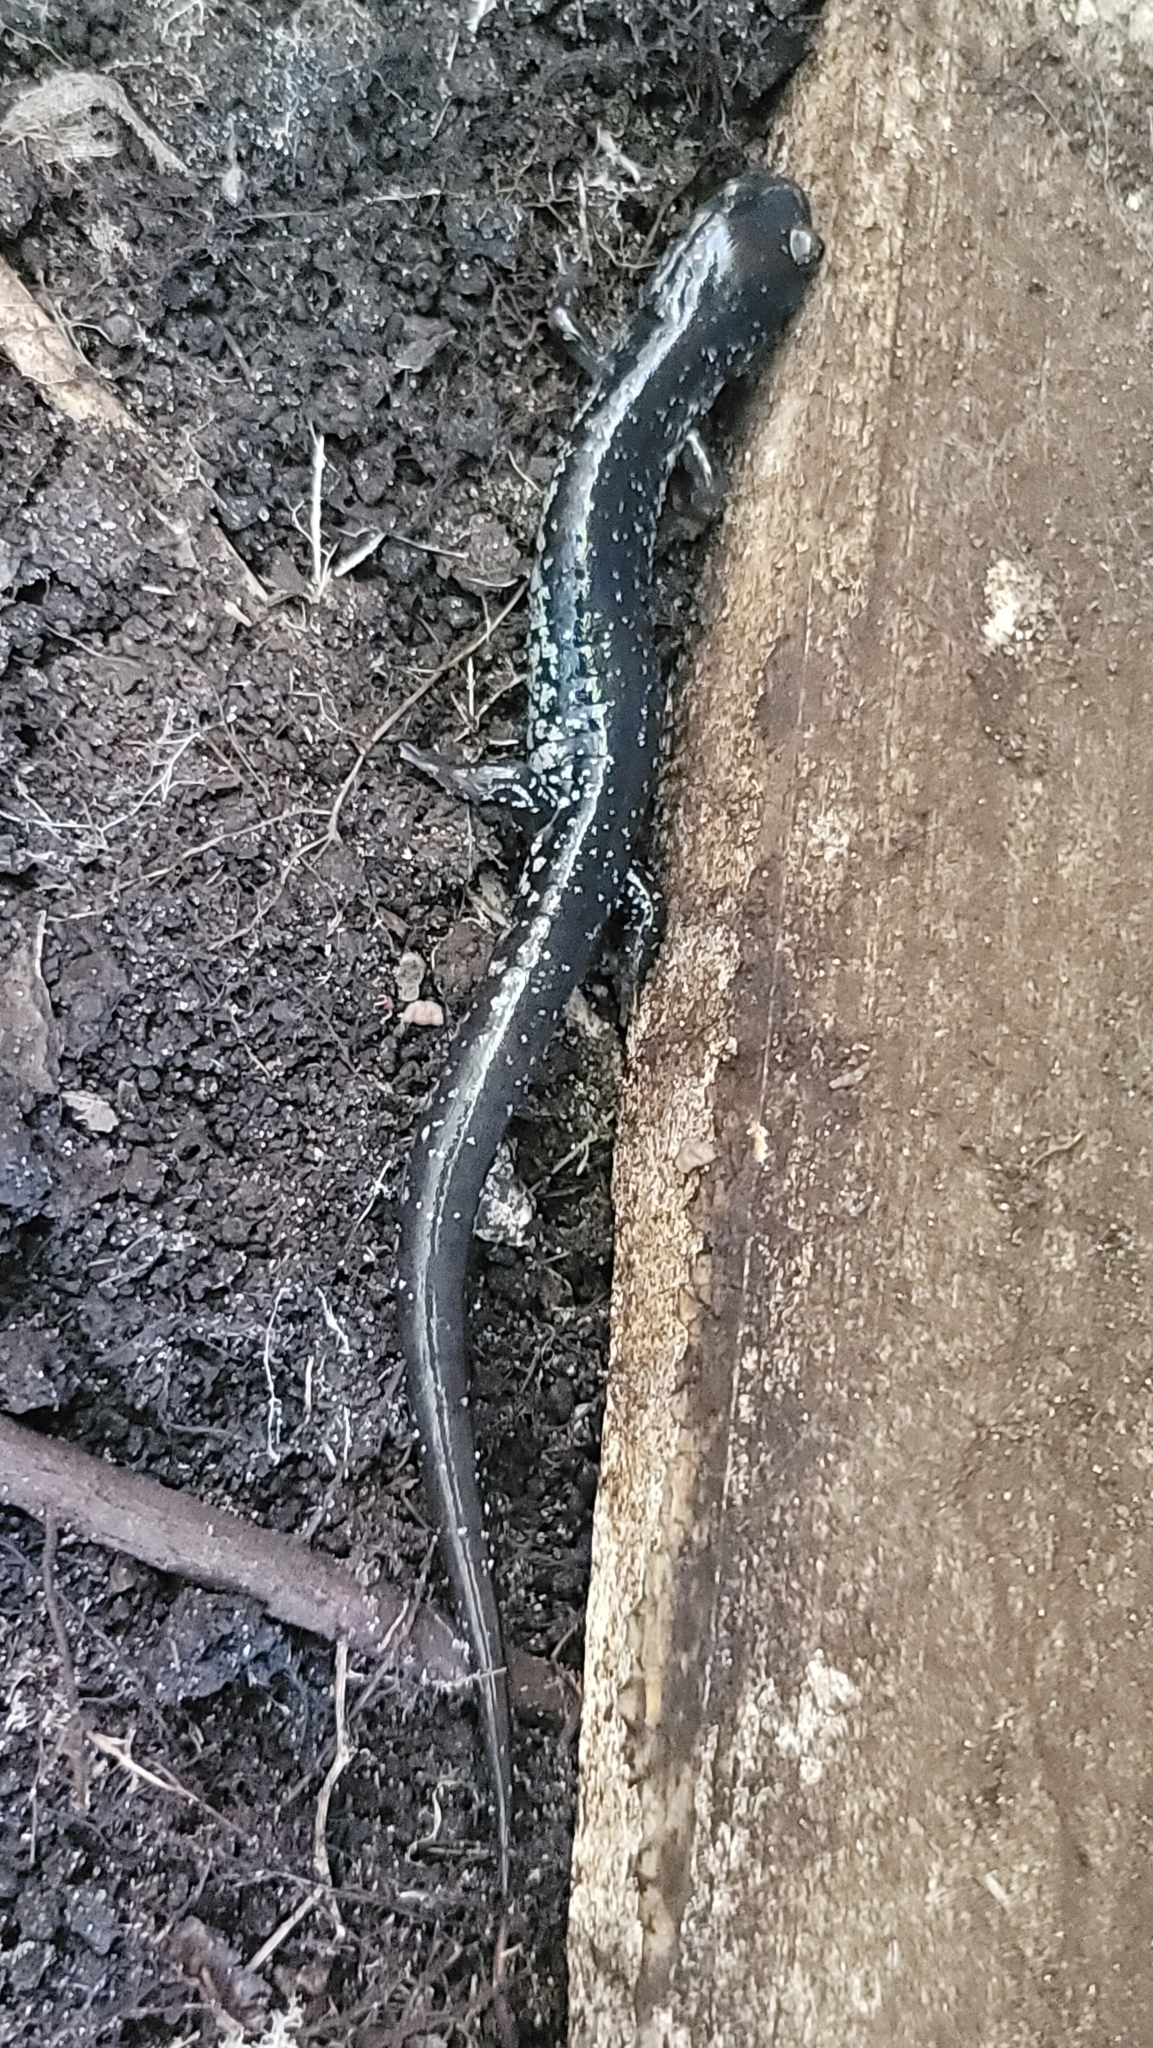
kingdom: Animalia
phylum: Chordata
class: Amphibia
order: Caudata
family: Plethodontidae
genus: Plethodon
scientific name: Plethodon chlorobryonis
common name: Atlantic coast slimy salamander
